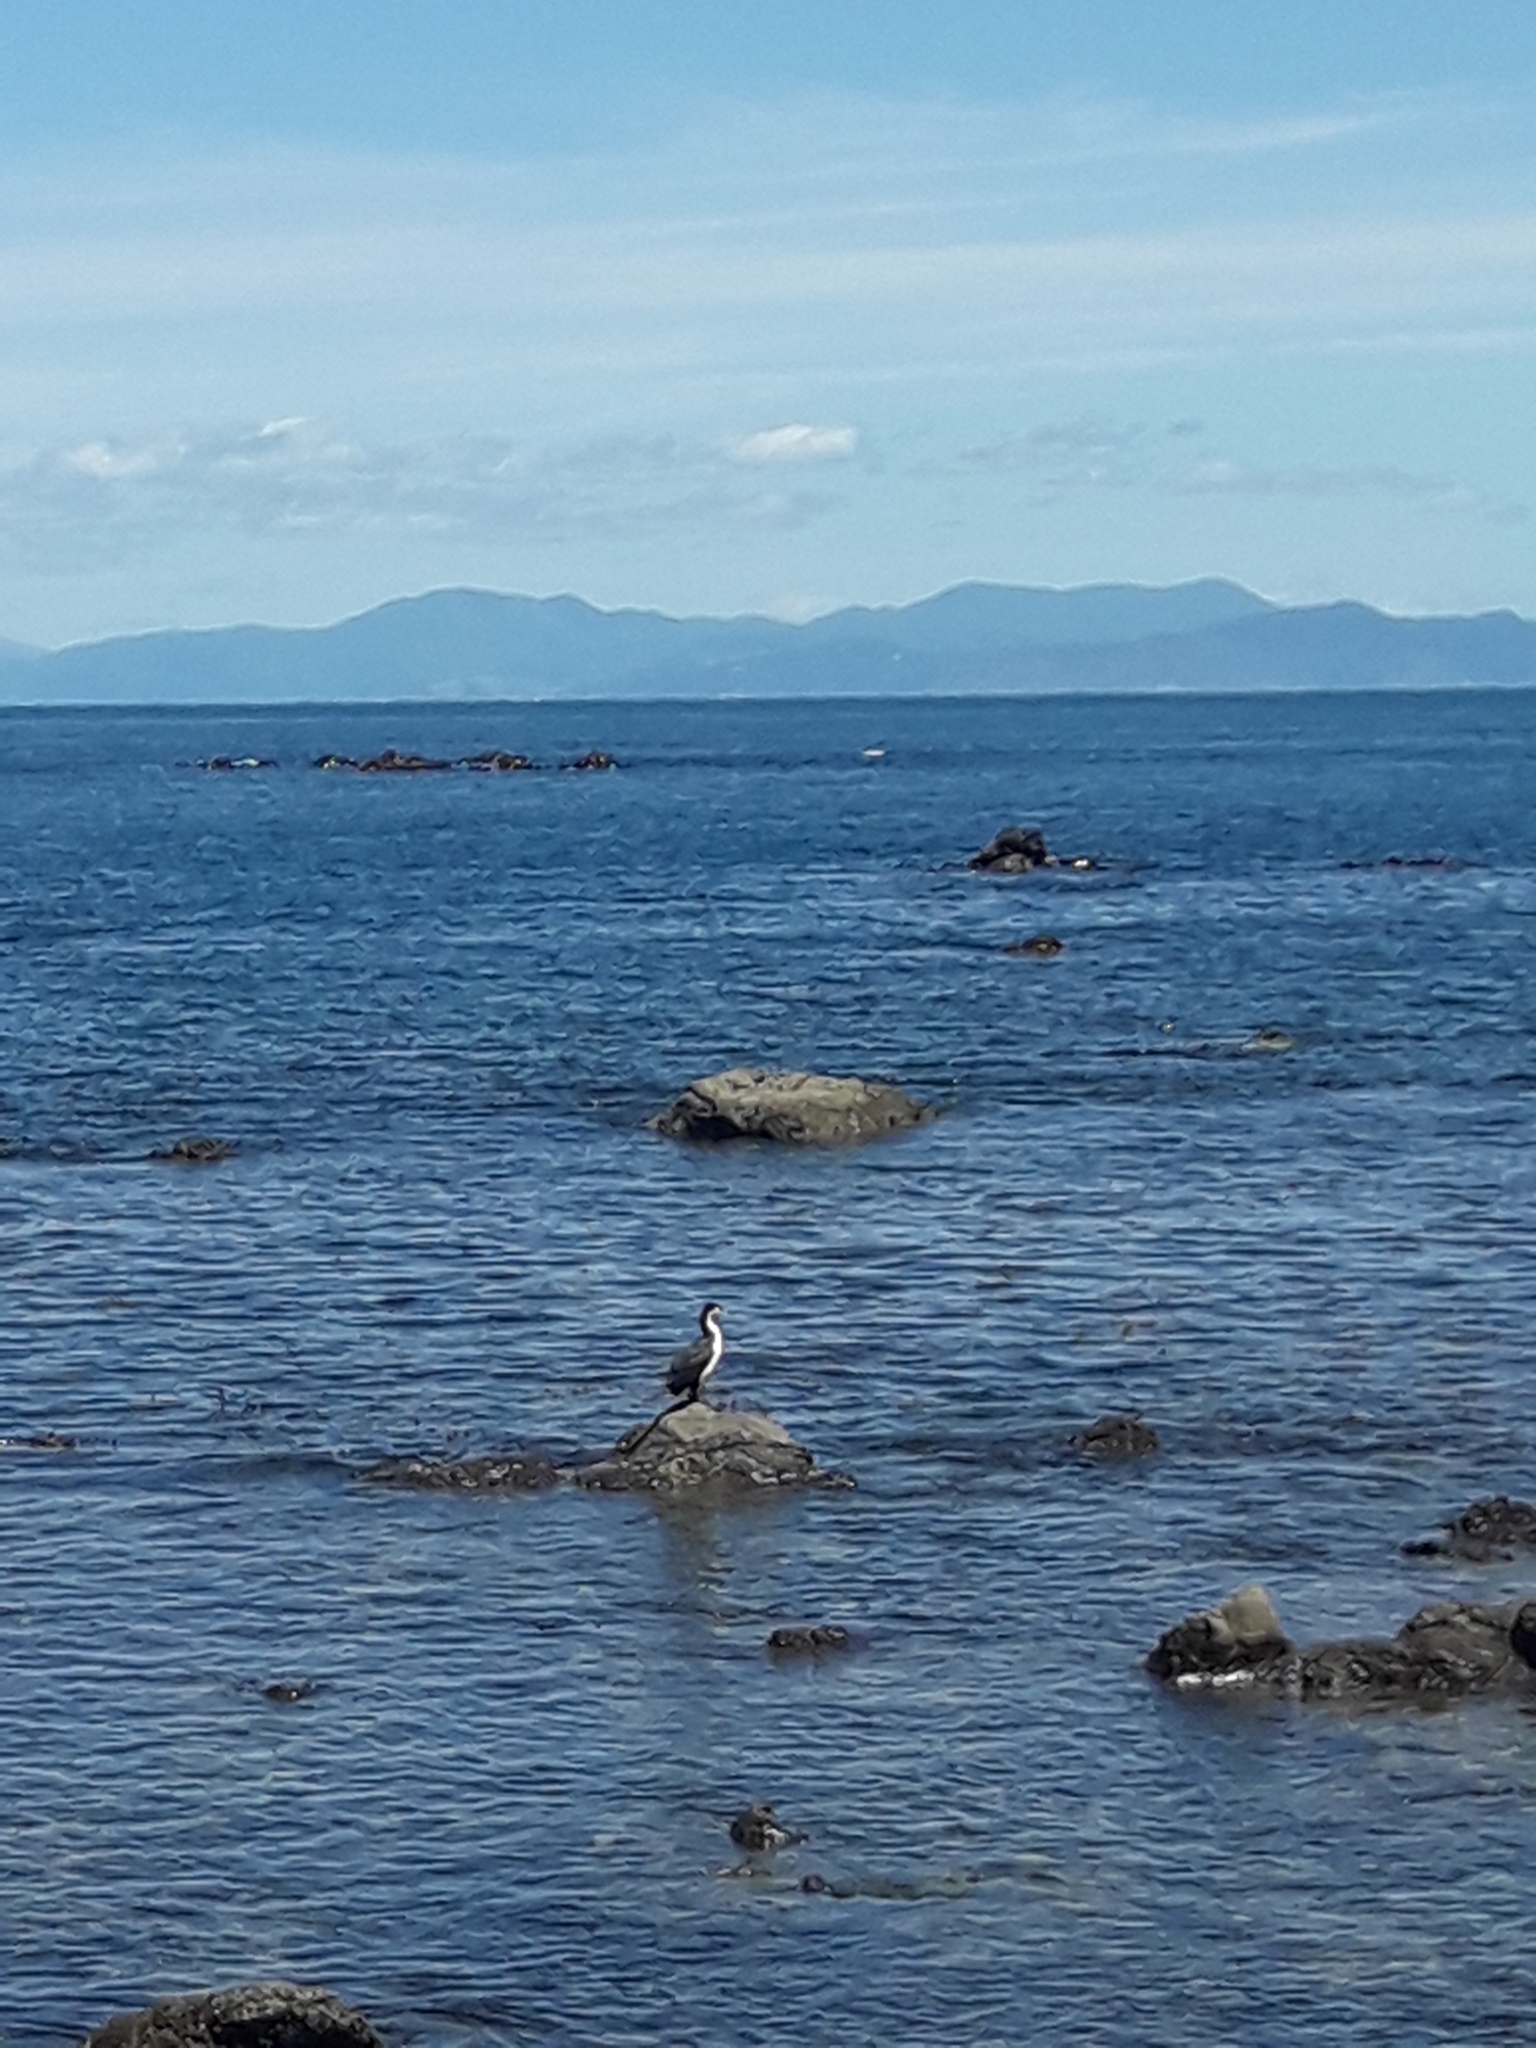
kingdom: Animalia
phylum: Chordata
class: Aves
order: Suliformes
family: Phalacrocoracidae
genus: Phalacrocorax
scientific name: Phalacrocorax varius
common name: Pied cormorant
